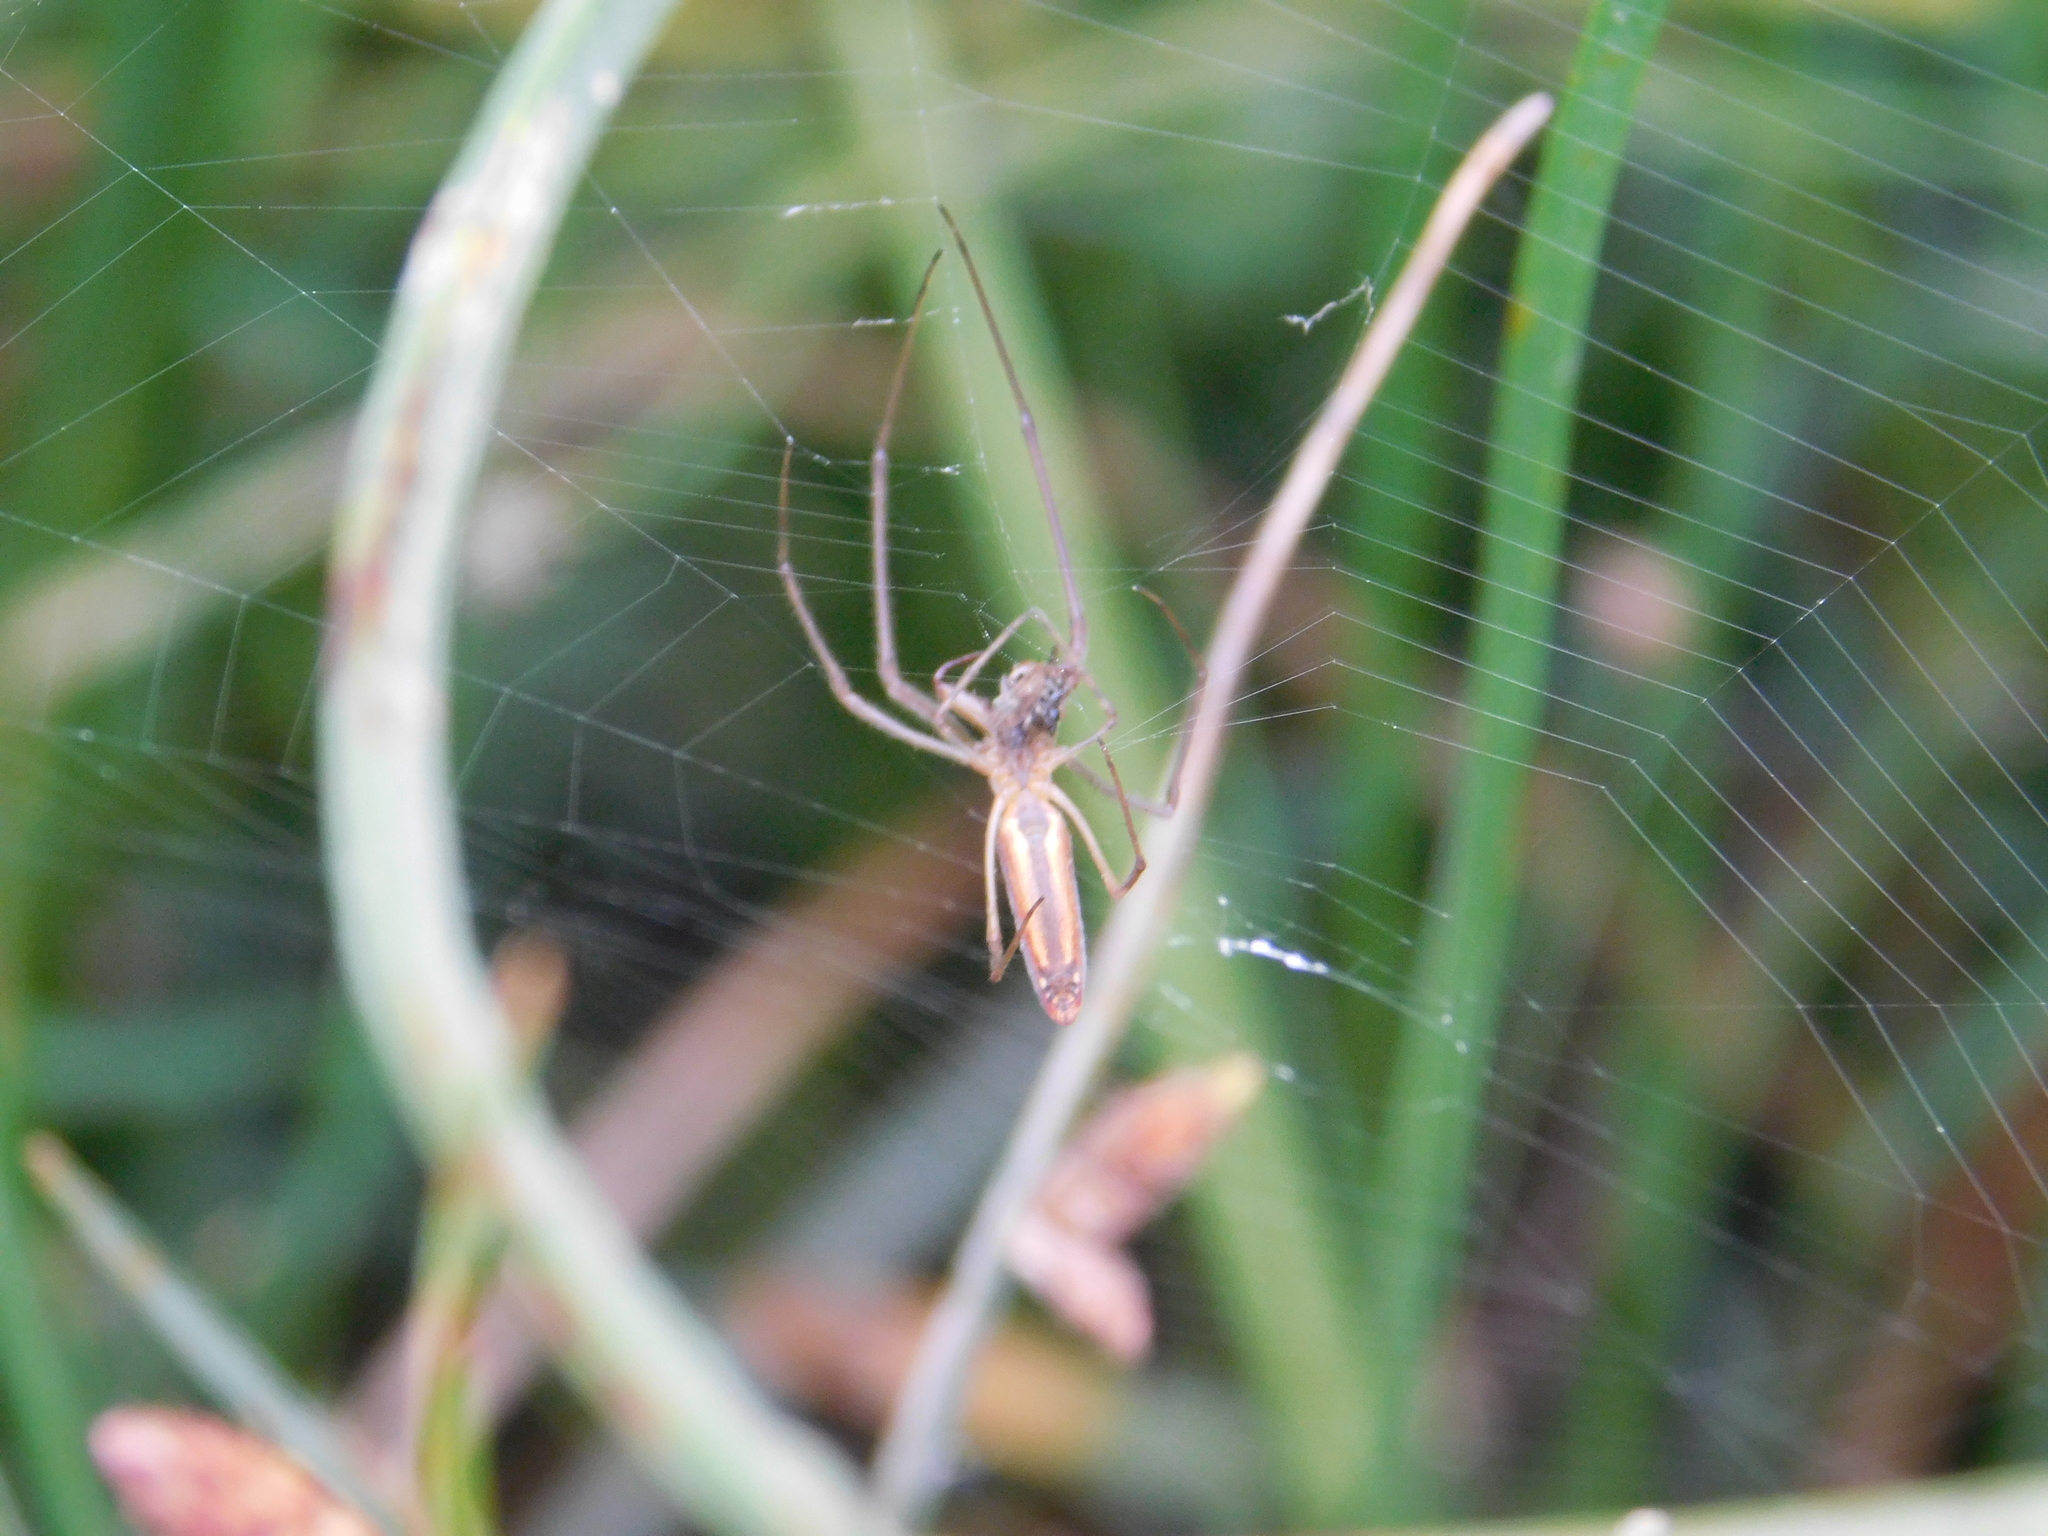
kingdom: Animalia
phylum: Arthropoda
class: Arachnida
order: Araneae
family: Tetragnathidae
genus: Tetragnatha
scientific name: Tetragnatha
